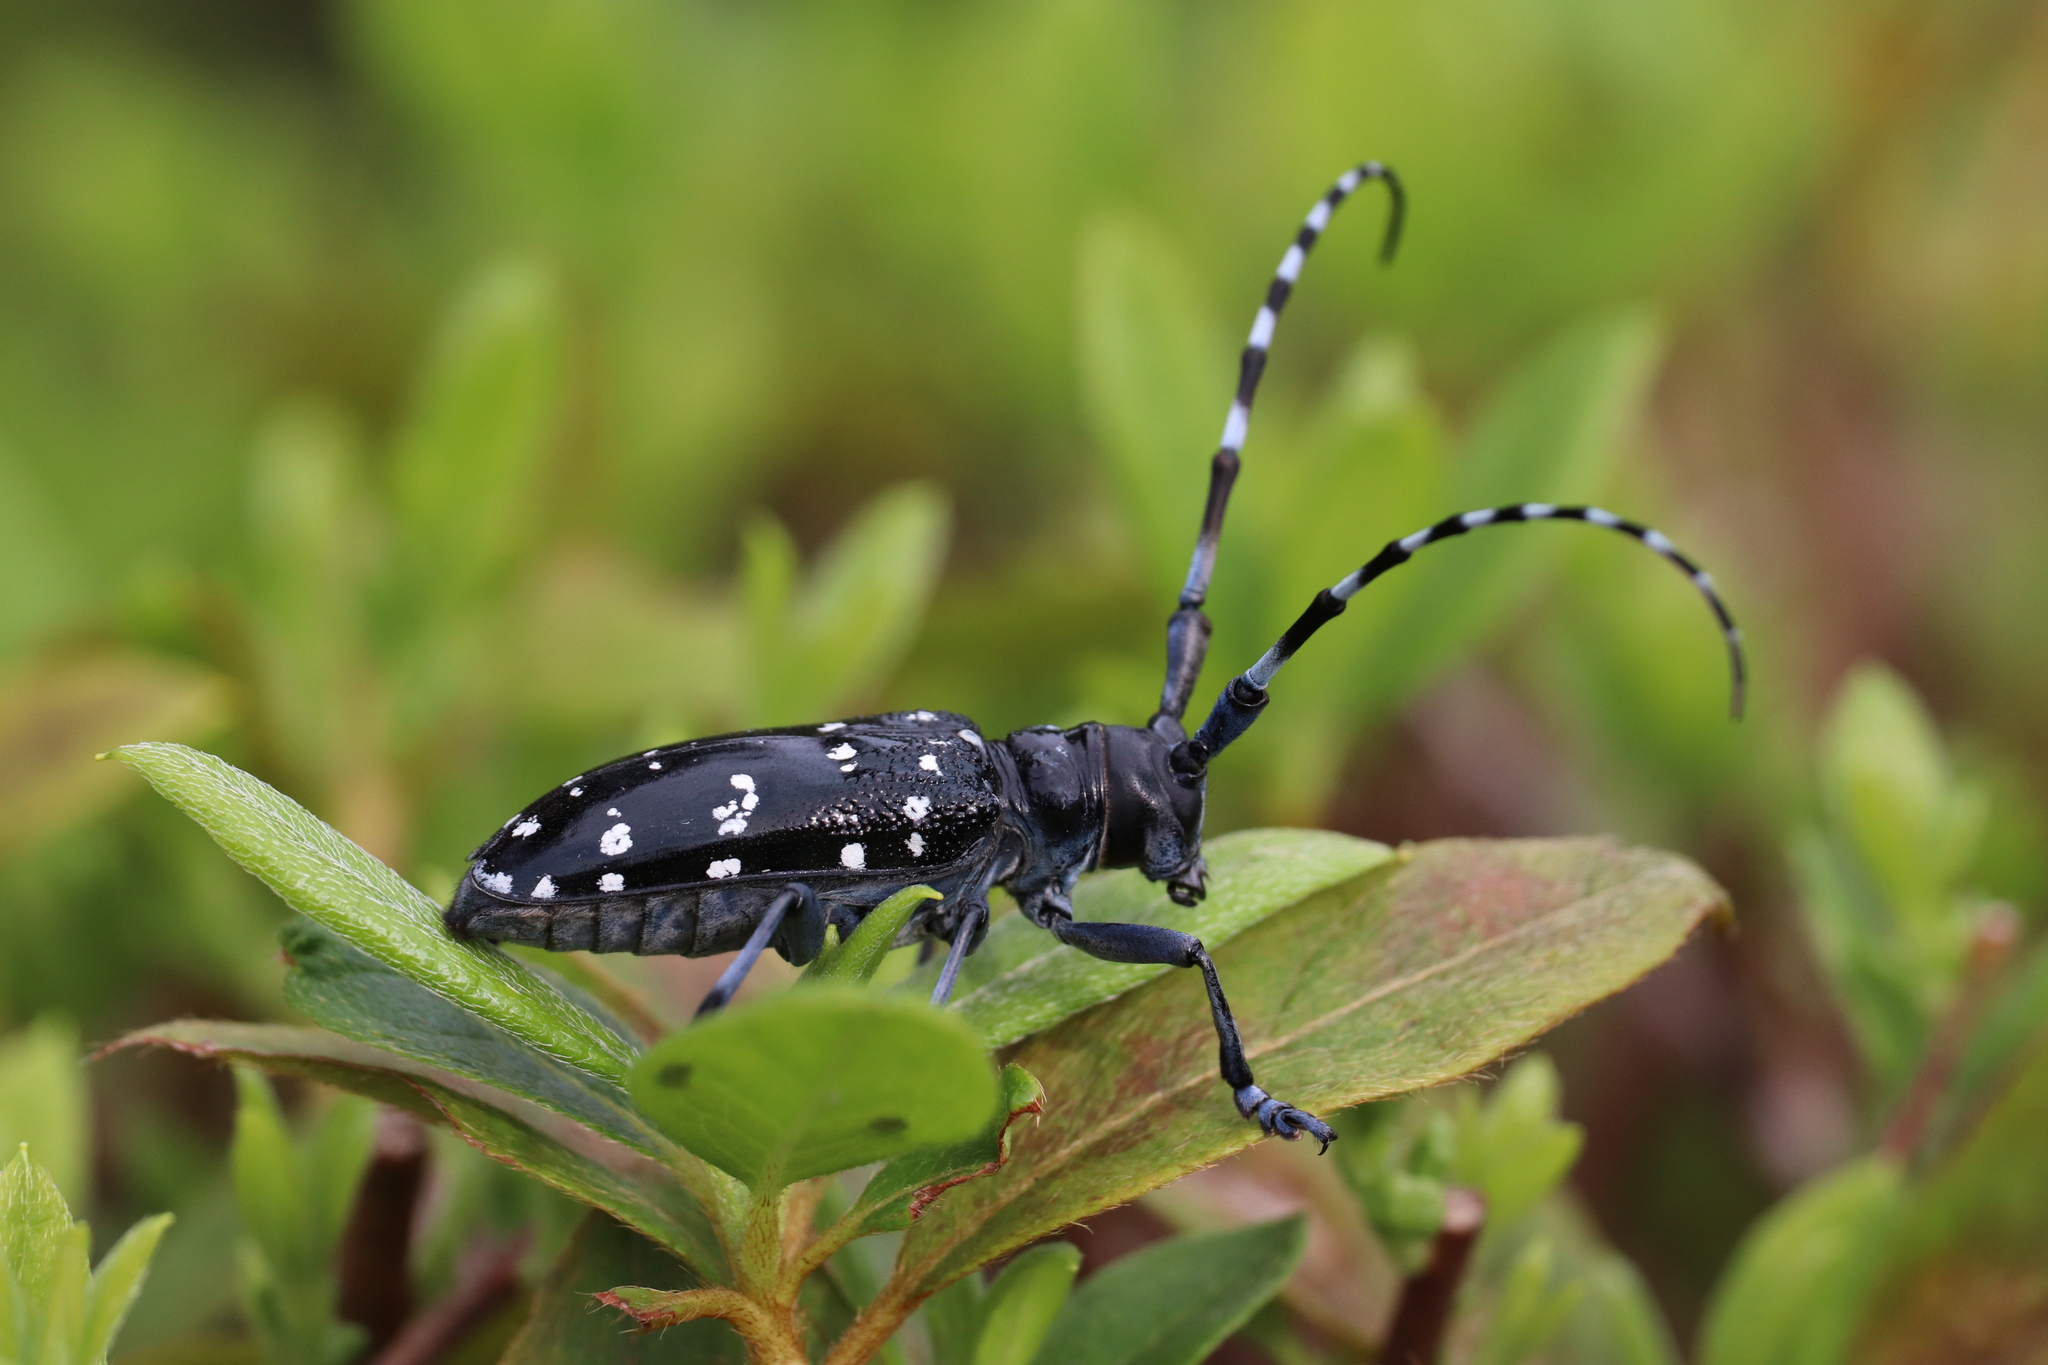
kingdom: Animalia
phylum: Arthropoda
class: Insecta
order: Coleoptera
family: Cerambycidae
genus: Anoplophora
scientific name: Anoplophora chinensis
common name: Citrus longhorned beetle
